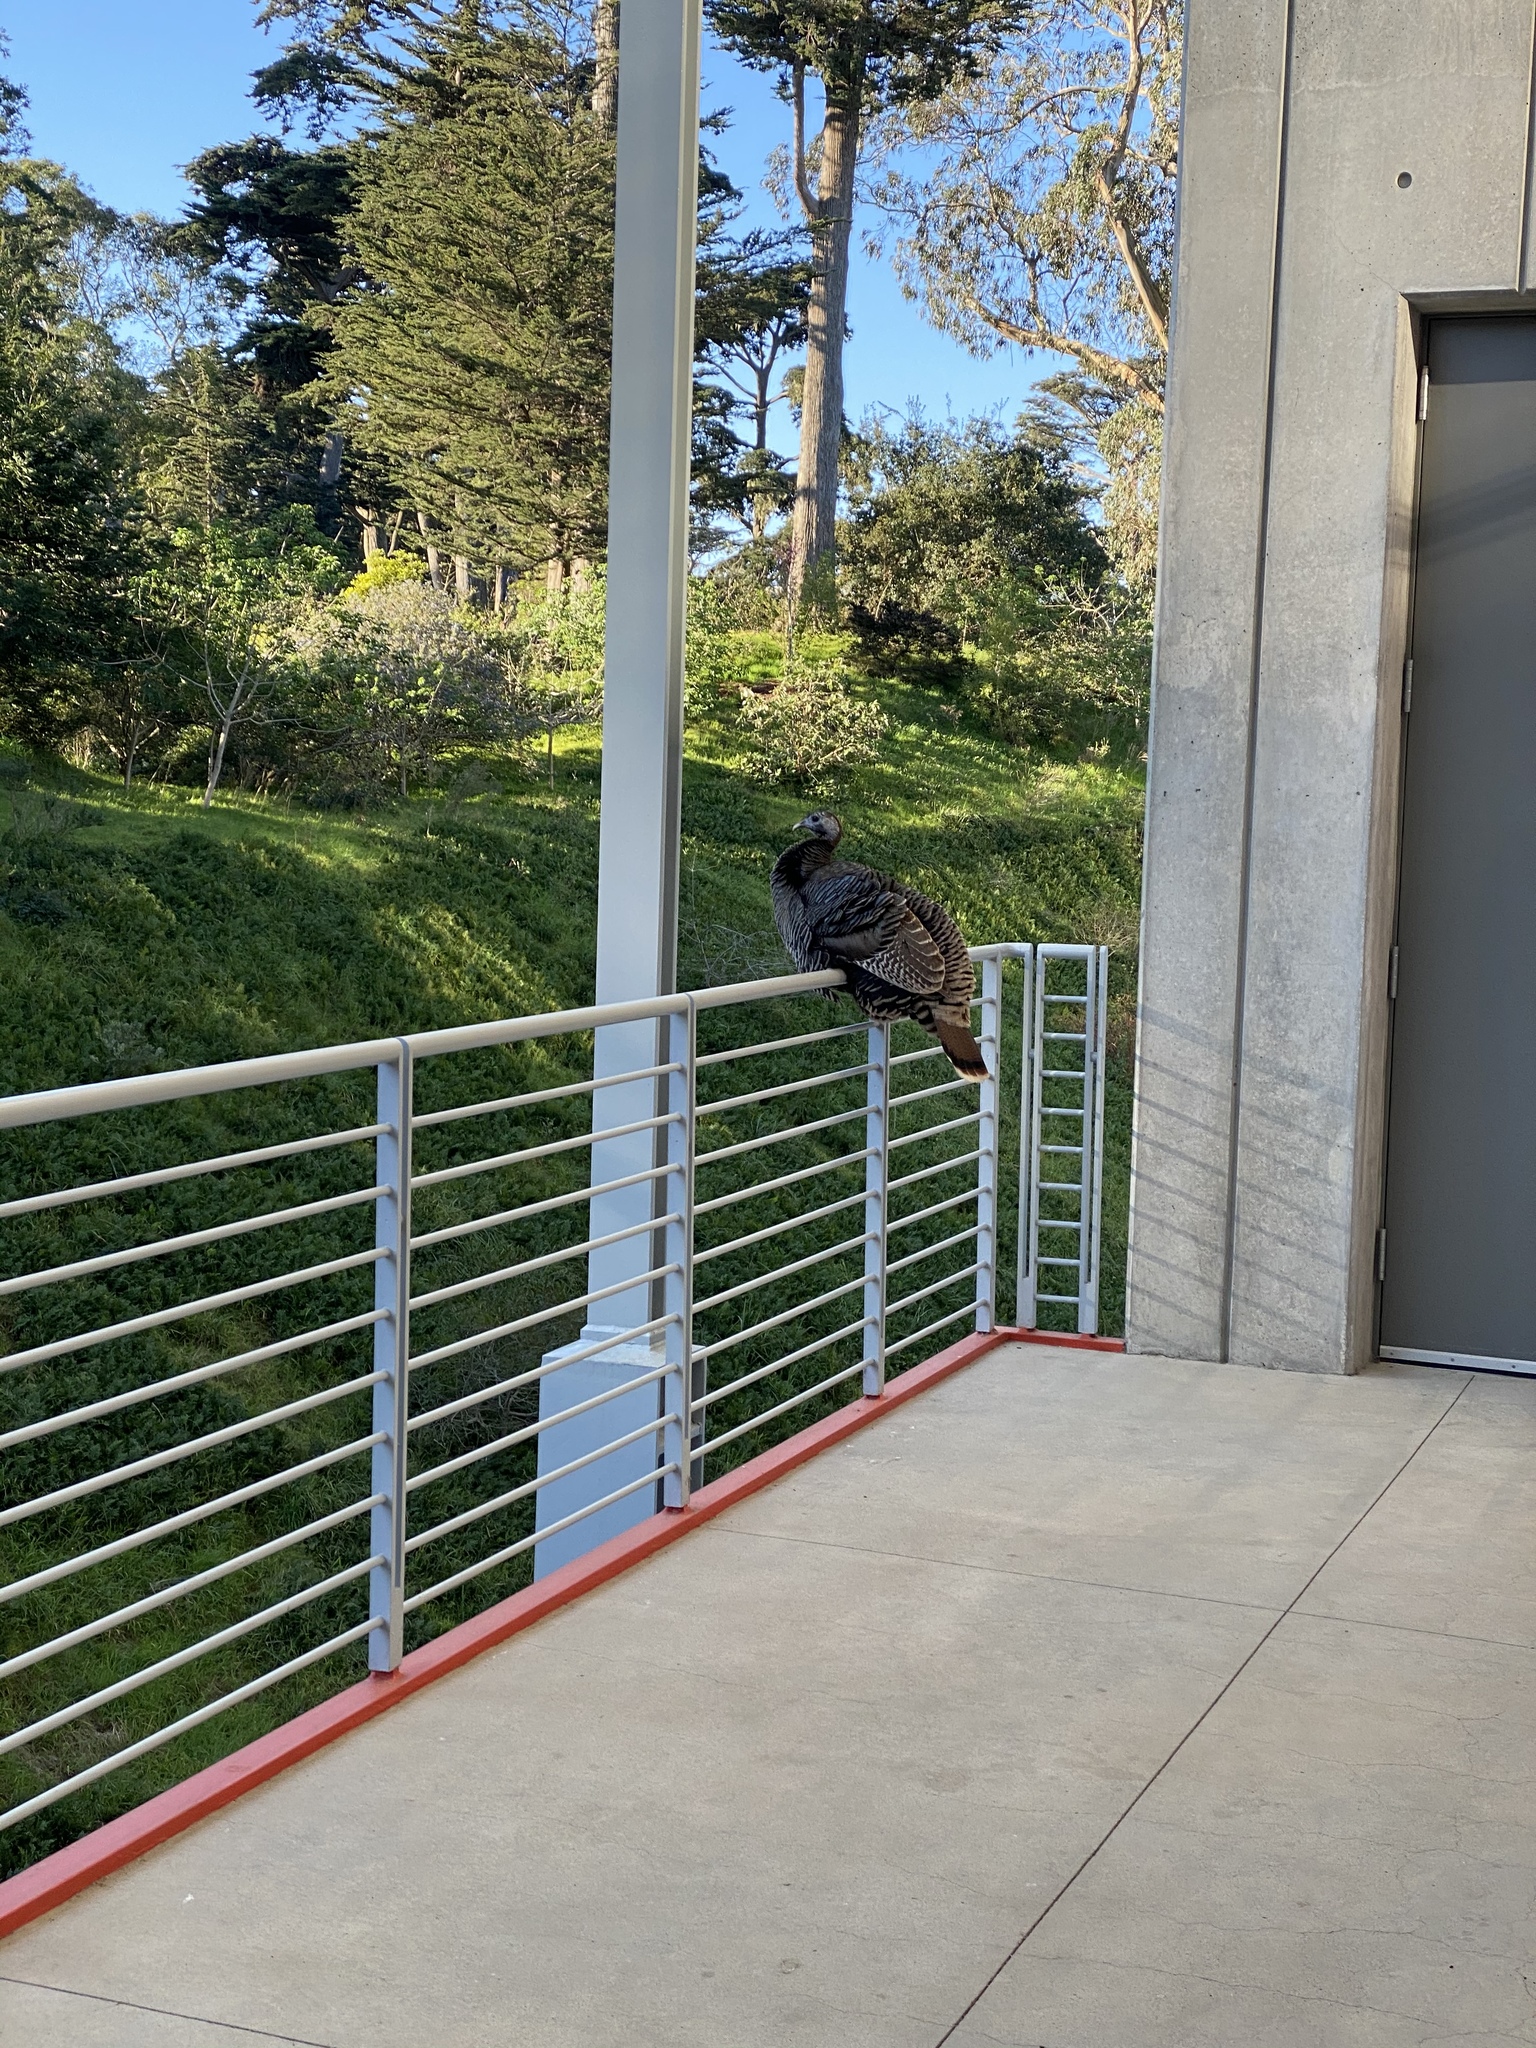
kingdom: Animalia
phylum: Chordata
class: Aves
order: Galliformes
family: Phasianidae
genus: Meleagris
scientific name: Meleagris gallopavo
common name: Wild turkey
